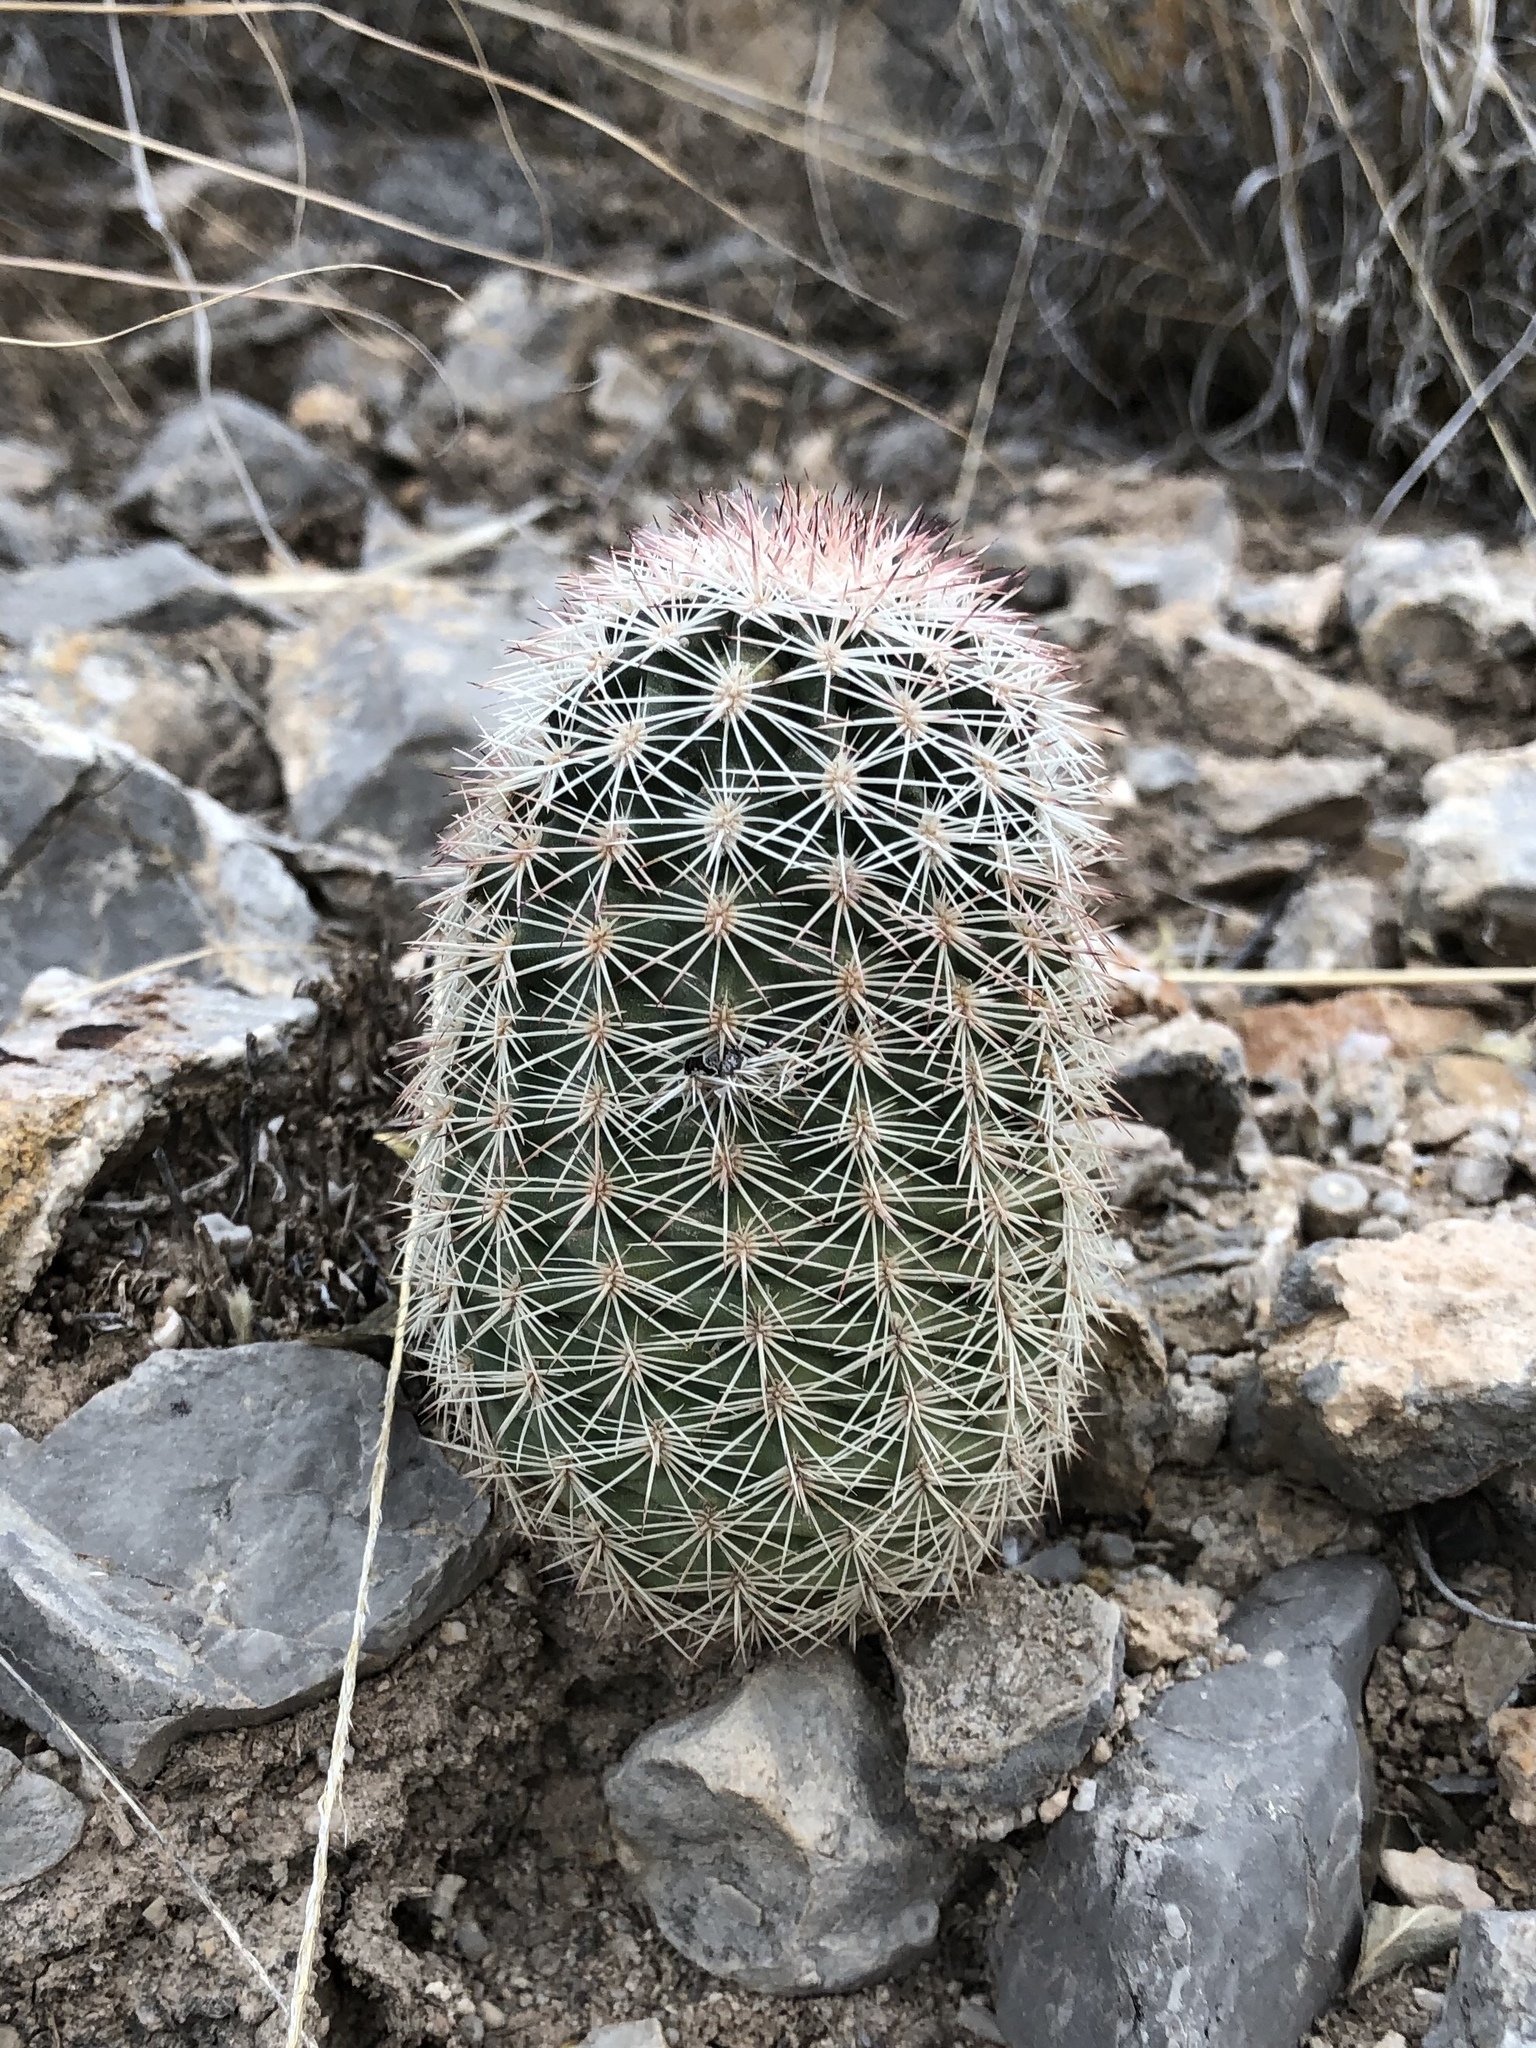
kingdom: Plantae
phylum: Tracheophyta
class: Magnoliopsida
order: Caryophyllales
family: Cactaceae
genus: Echinocereus
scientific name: Echinocereus dasyacanthus
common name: Spiny hedgehog cactus
